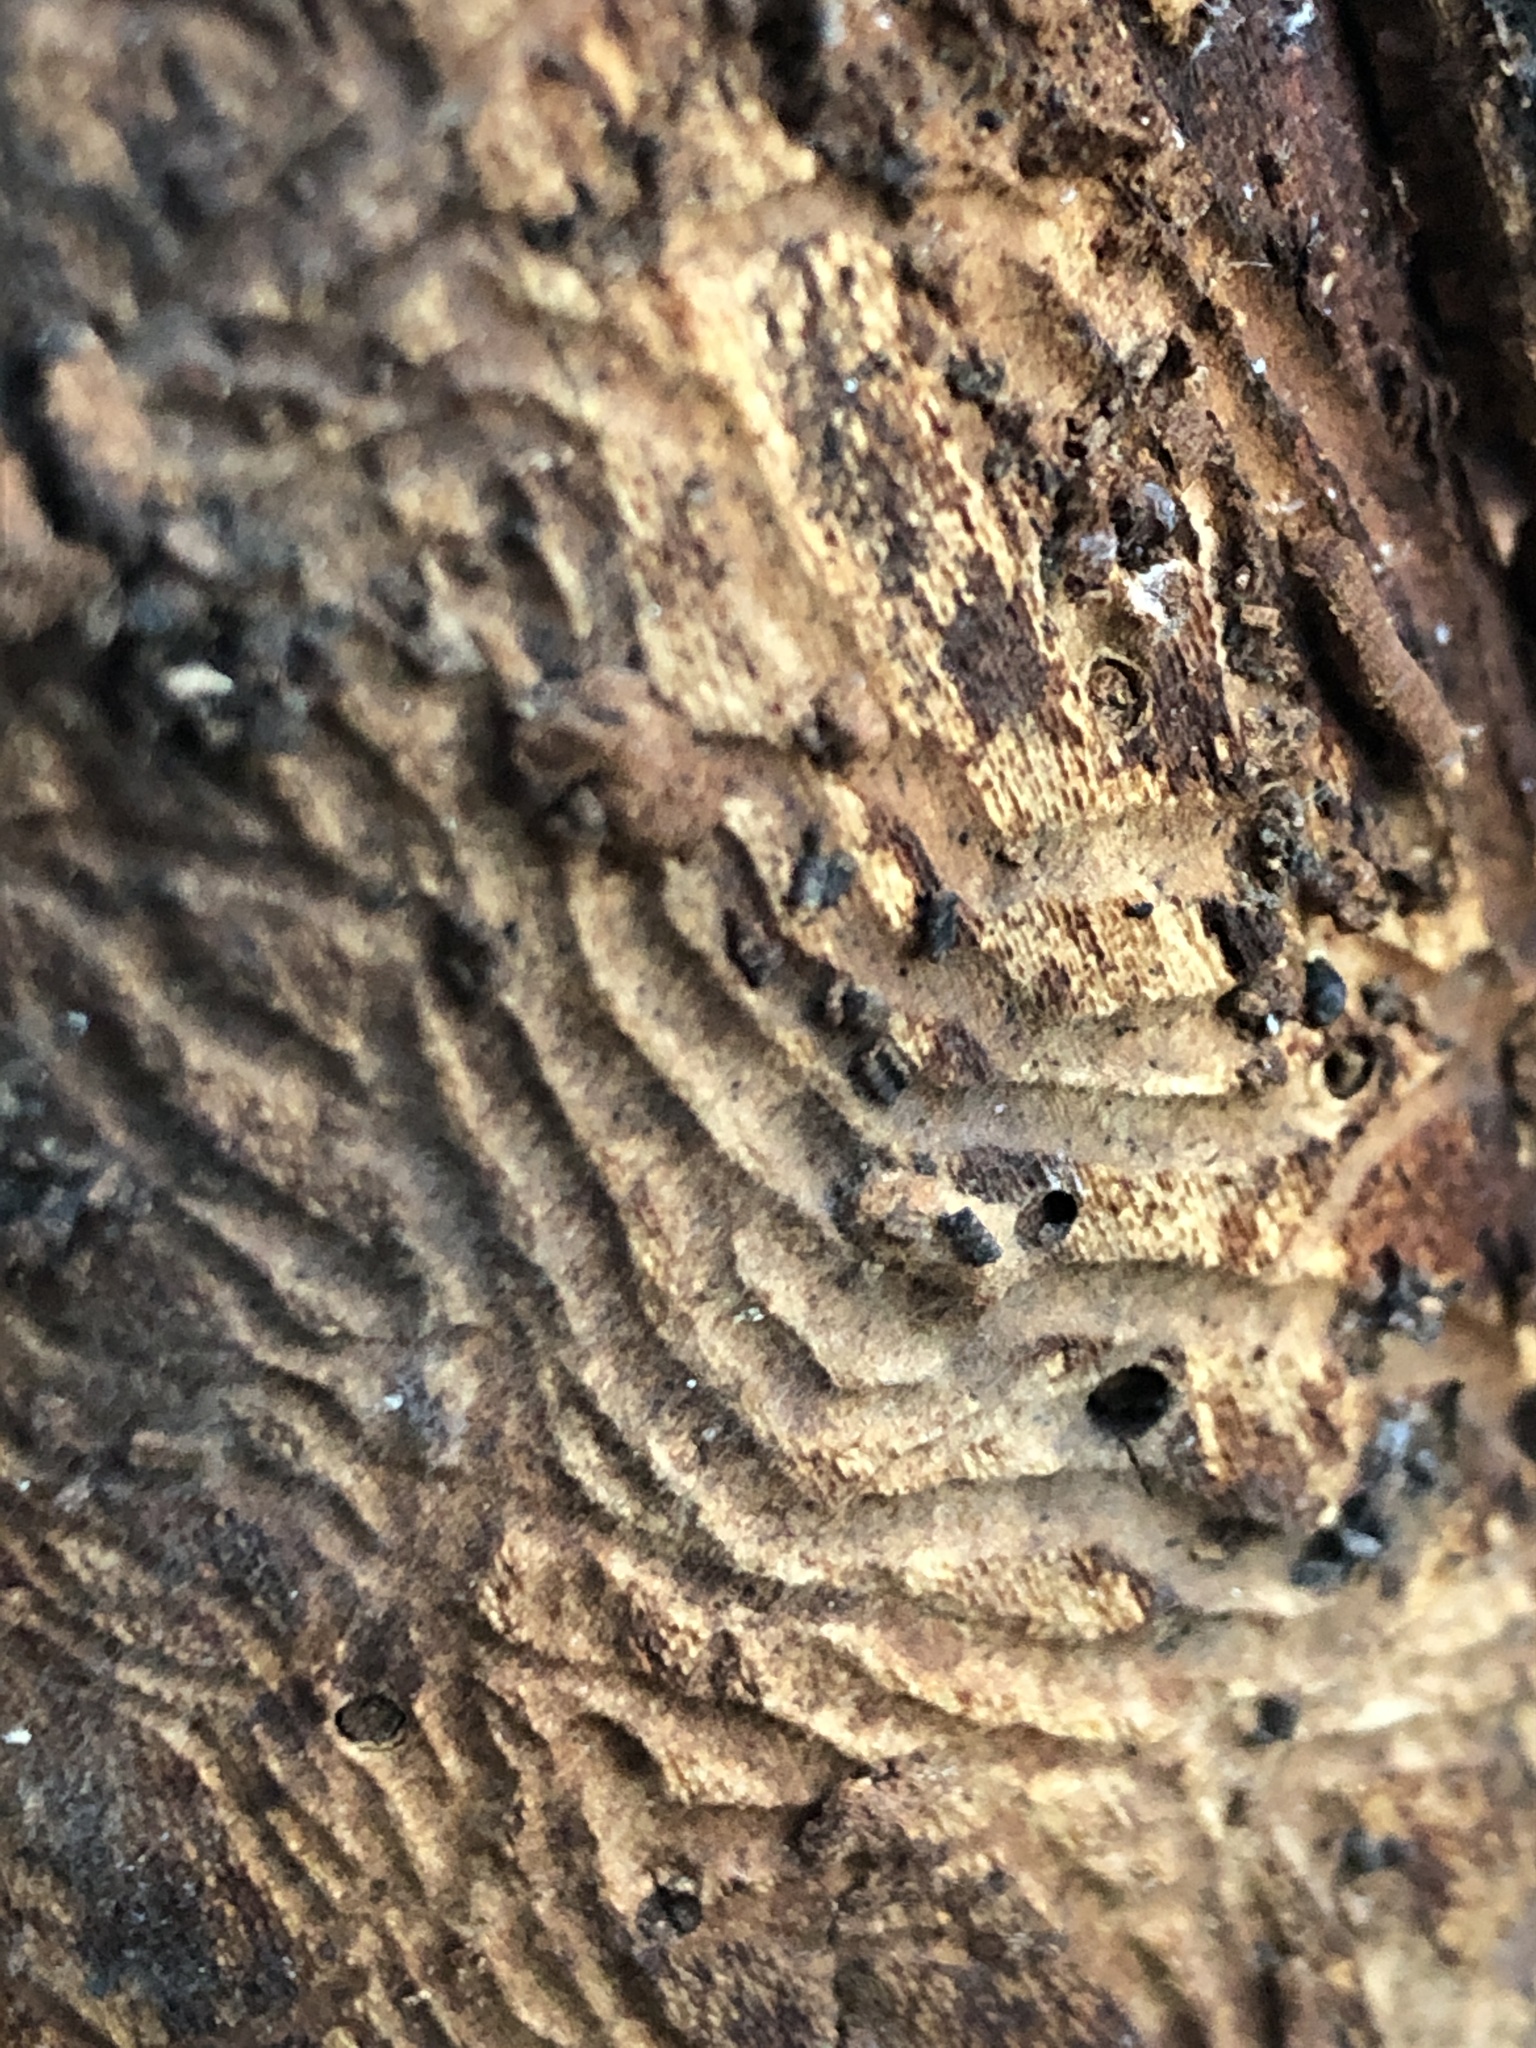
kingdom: Animalia
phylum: Arthropoda
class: Insecta
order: Coleoptera
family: Curculionidae
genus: Scolytus
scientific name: Scolytus mali
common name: Large fruit bark beetle
